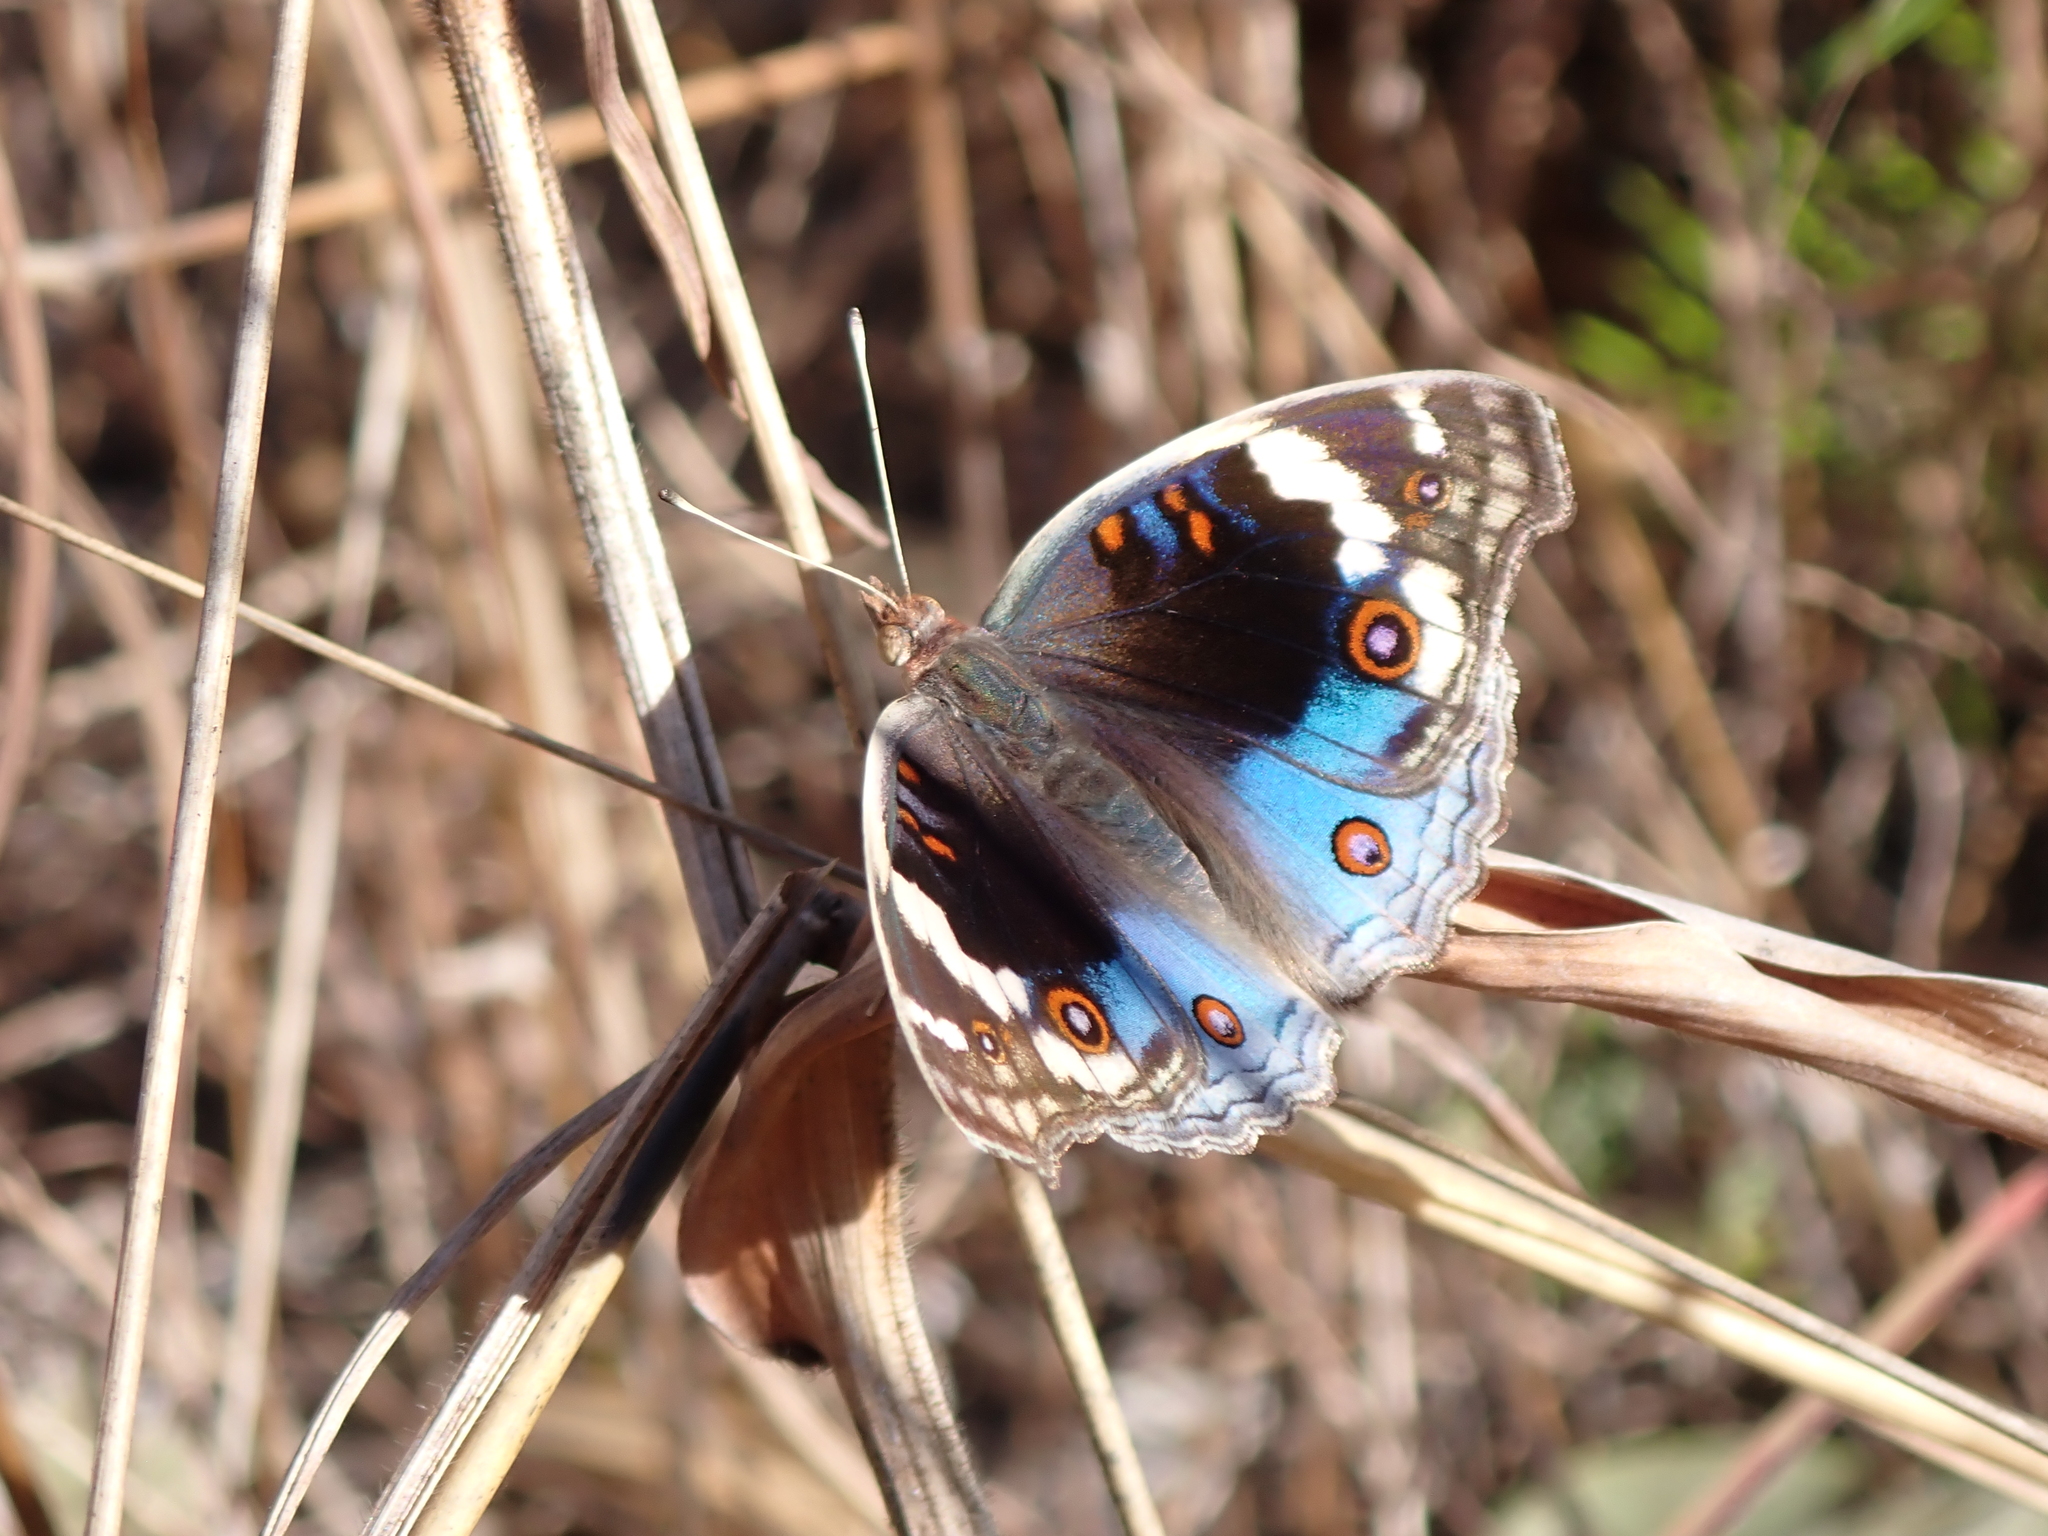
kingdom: Animalia
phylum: Arthropoda
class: Insecta
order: Lepidoptera
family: Nymphalidae
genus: Junonia
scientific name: Junonia orithya
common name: Blue pansy
